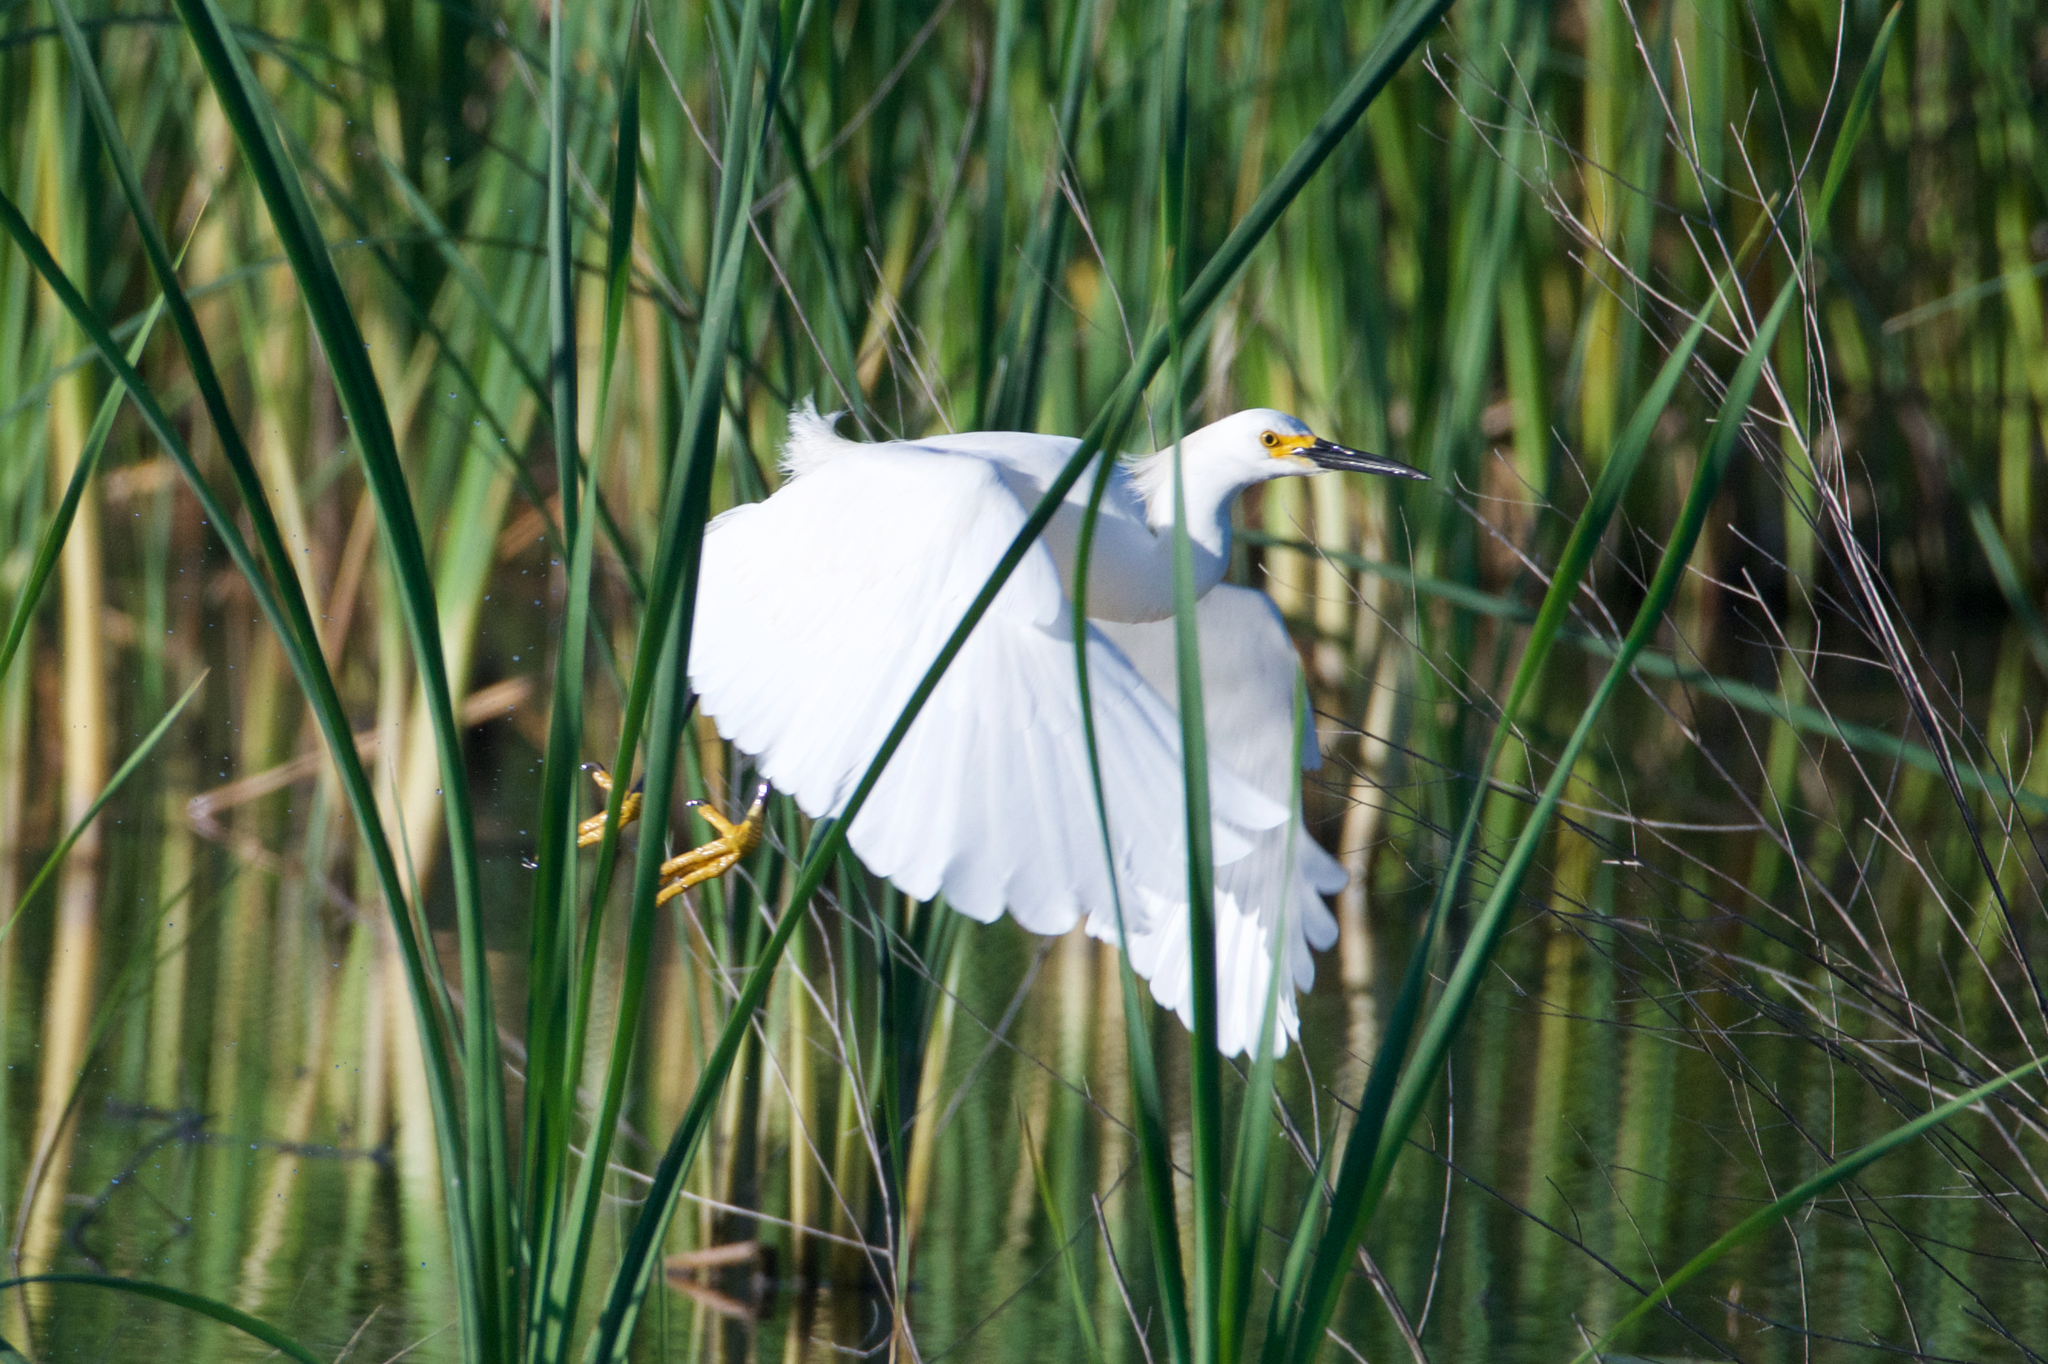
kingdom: Animalia
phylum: Chordata
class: Aves
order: Pelecaniformes
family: Ardeidae
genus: Egretta
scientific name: Egretta thula
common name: Snowy egret
